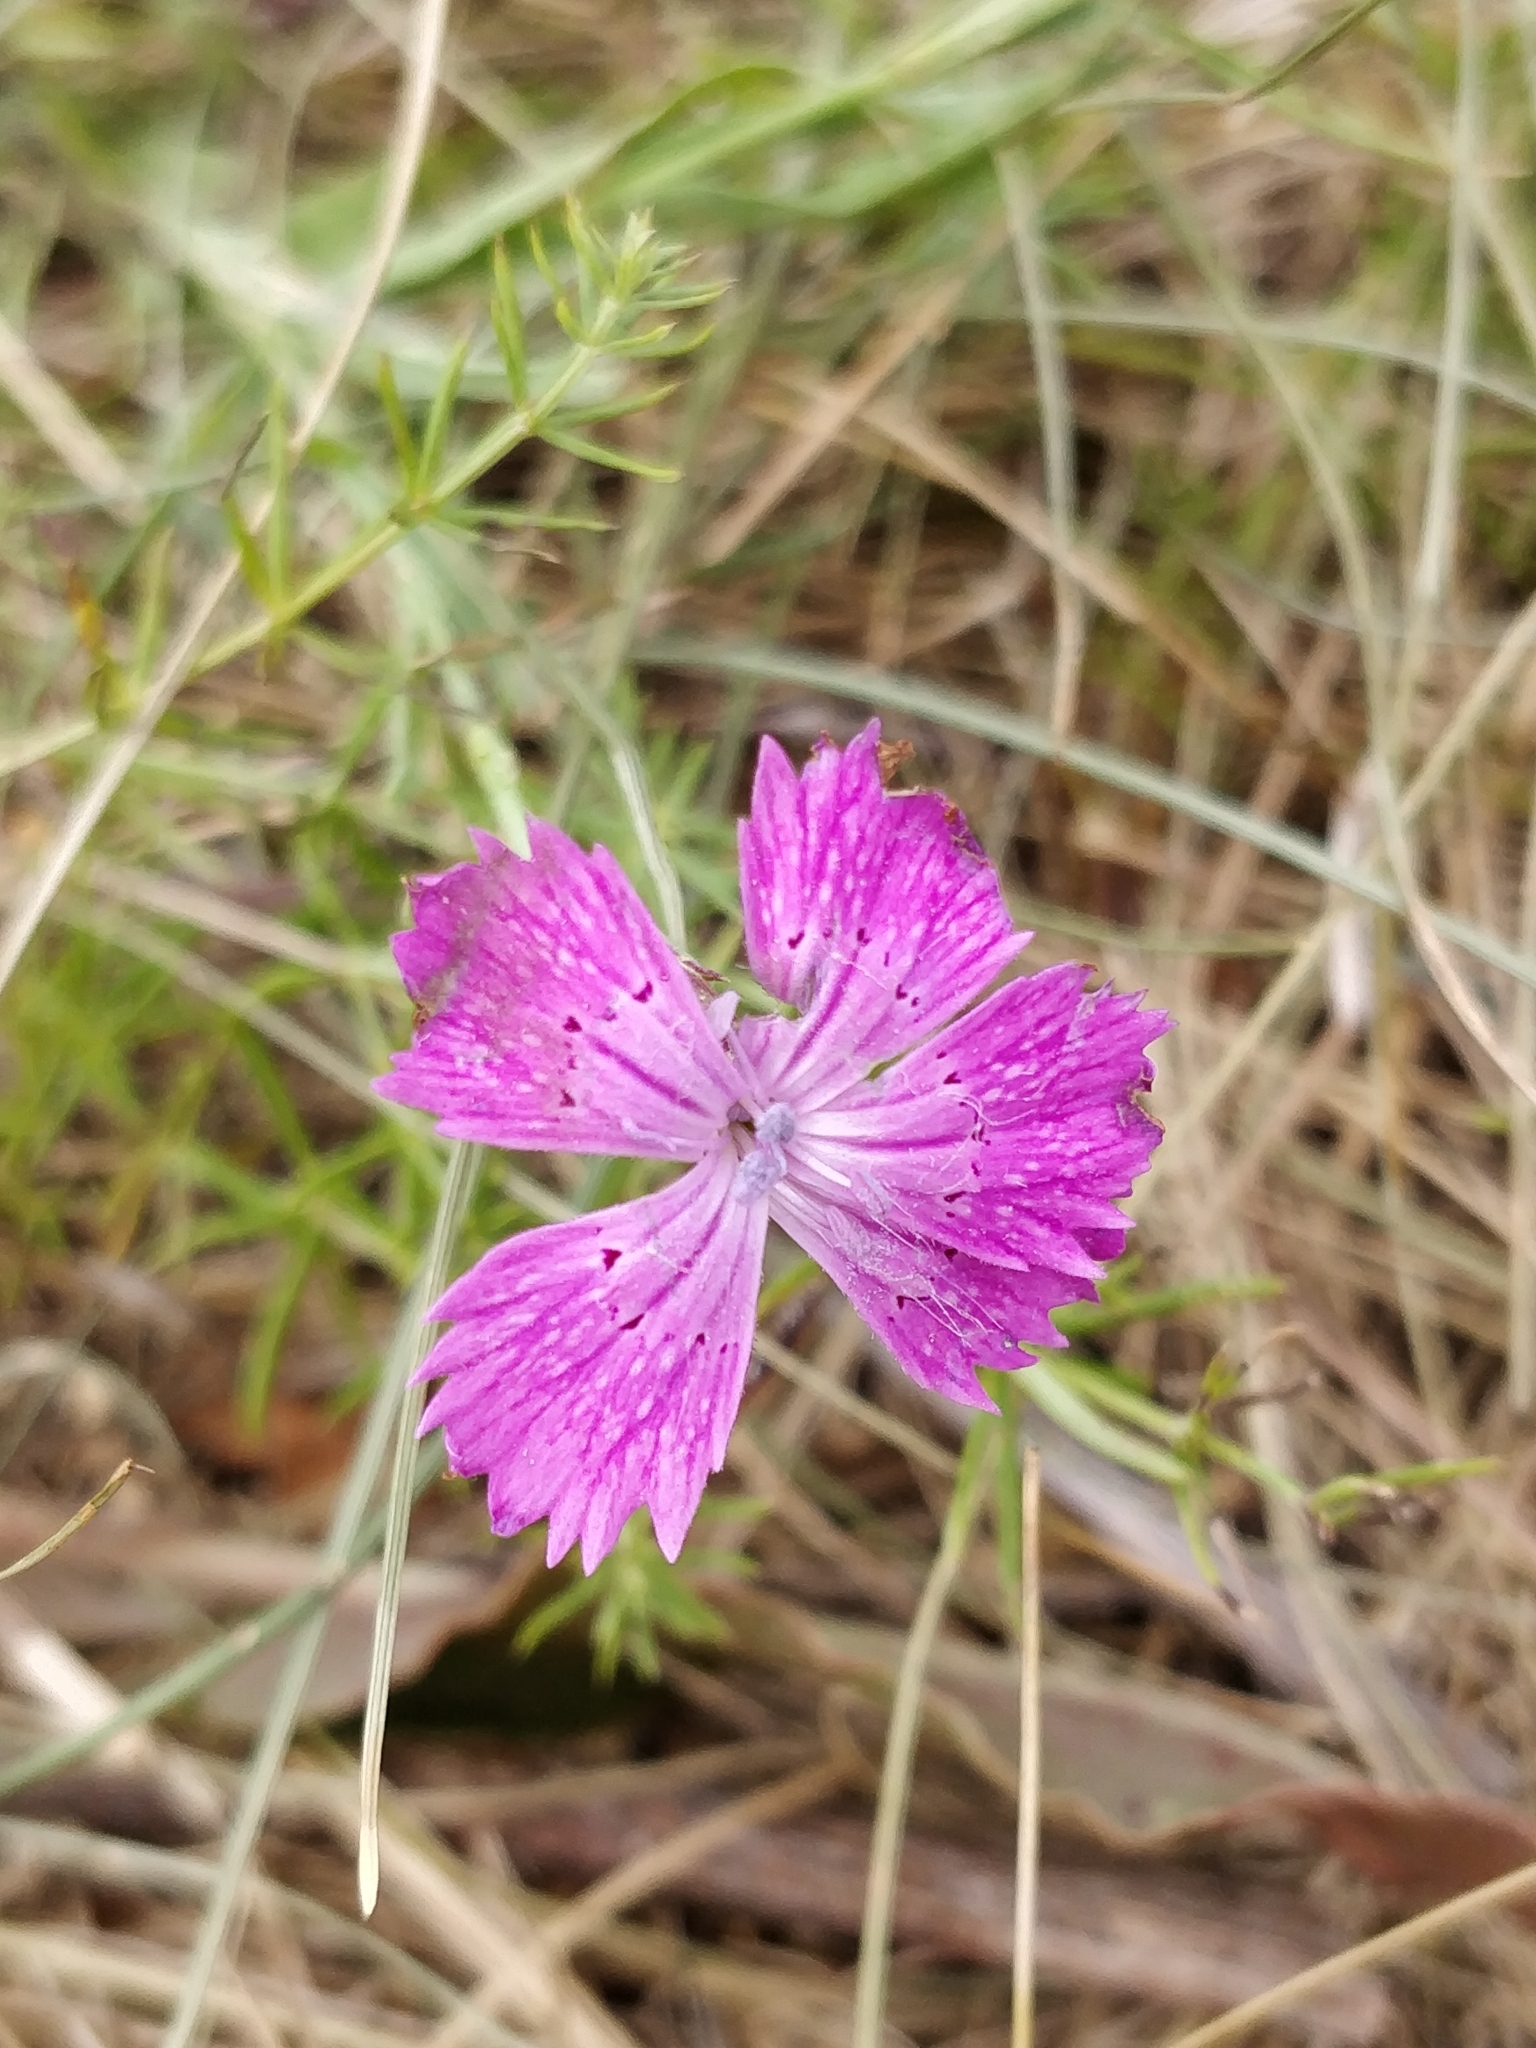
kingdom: Plantae
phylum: Tracheophyta
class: Magnoliopsida
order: Caryophyllales
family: Caryophyllaceae
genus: Dianthus
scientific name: Dianthus chinensis
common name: Rainbow pink
